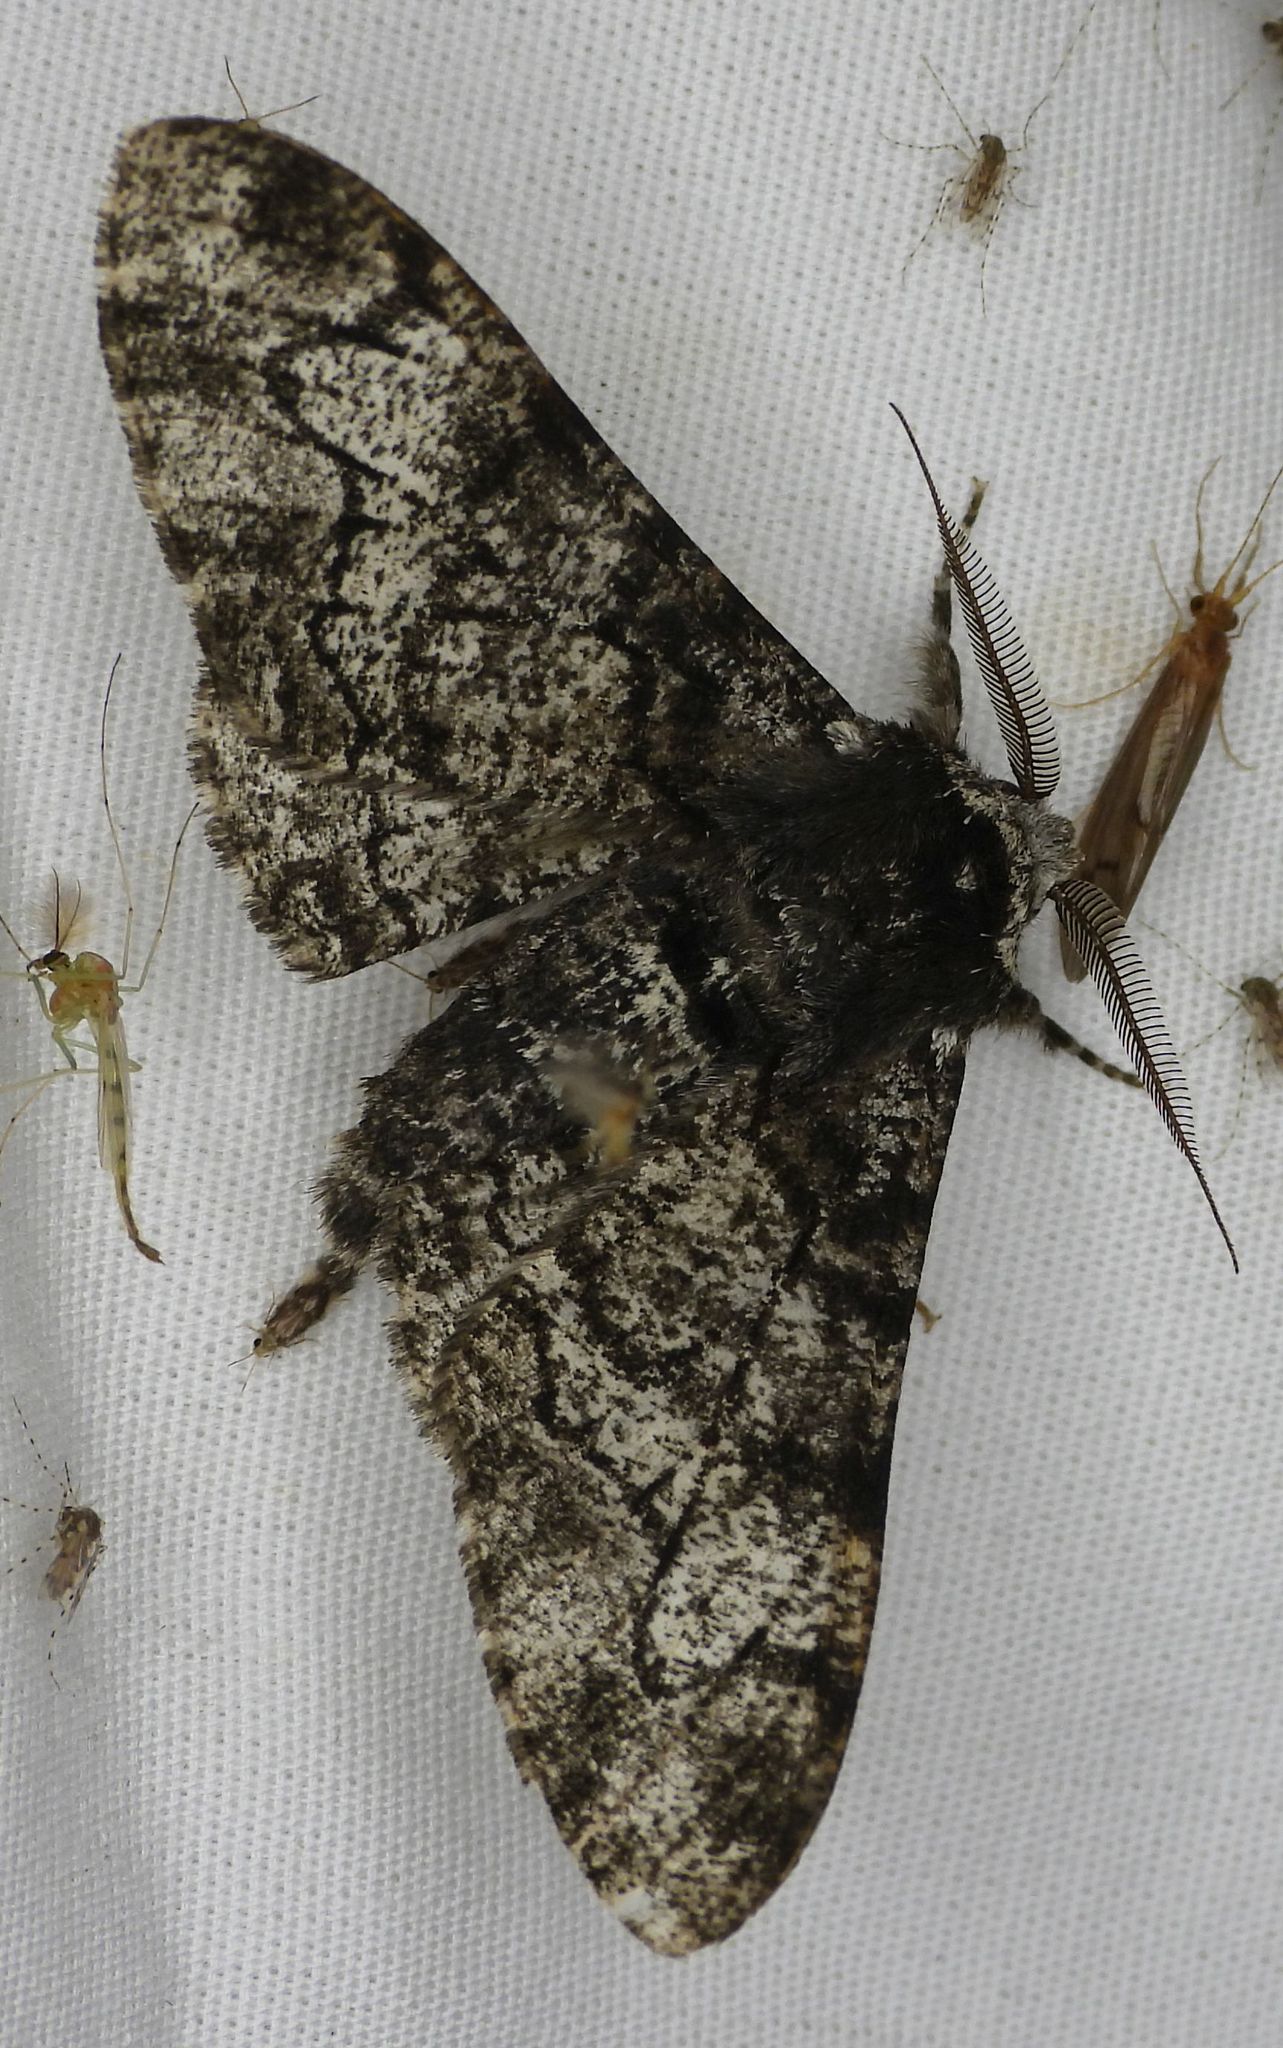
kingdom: Animalia
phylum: Arthropoda
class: Insecta
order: Lepidoptera
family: Geometridae
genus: Biston
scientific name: Biston betularia
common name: Peppered moth
